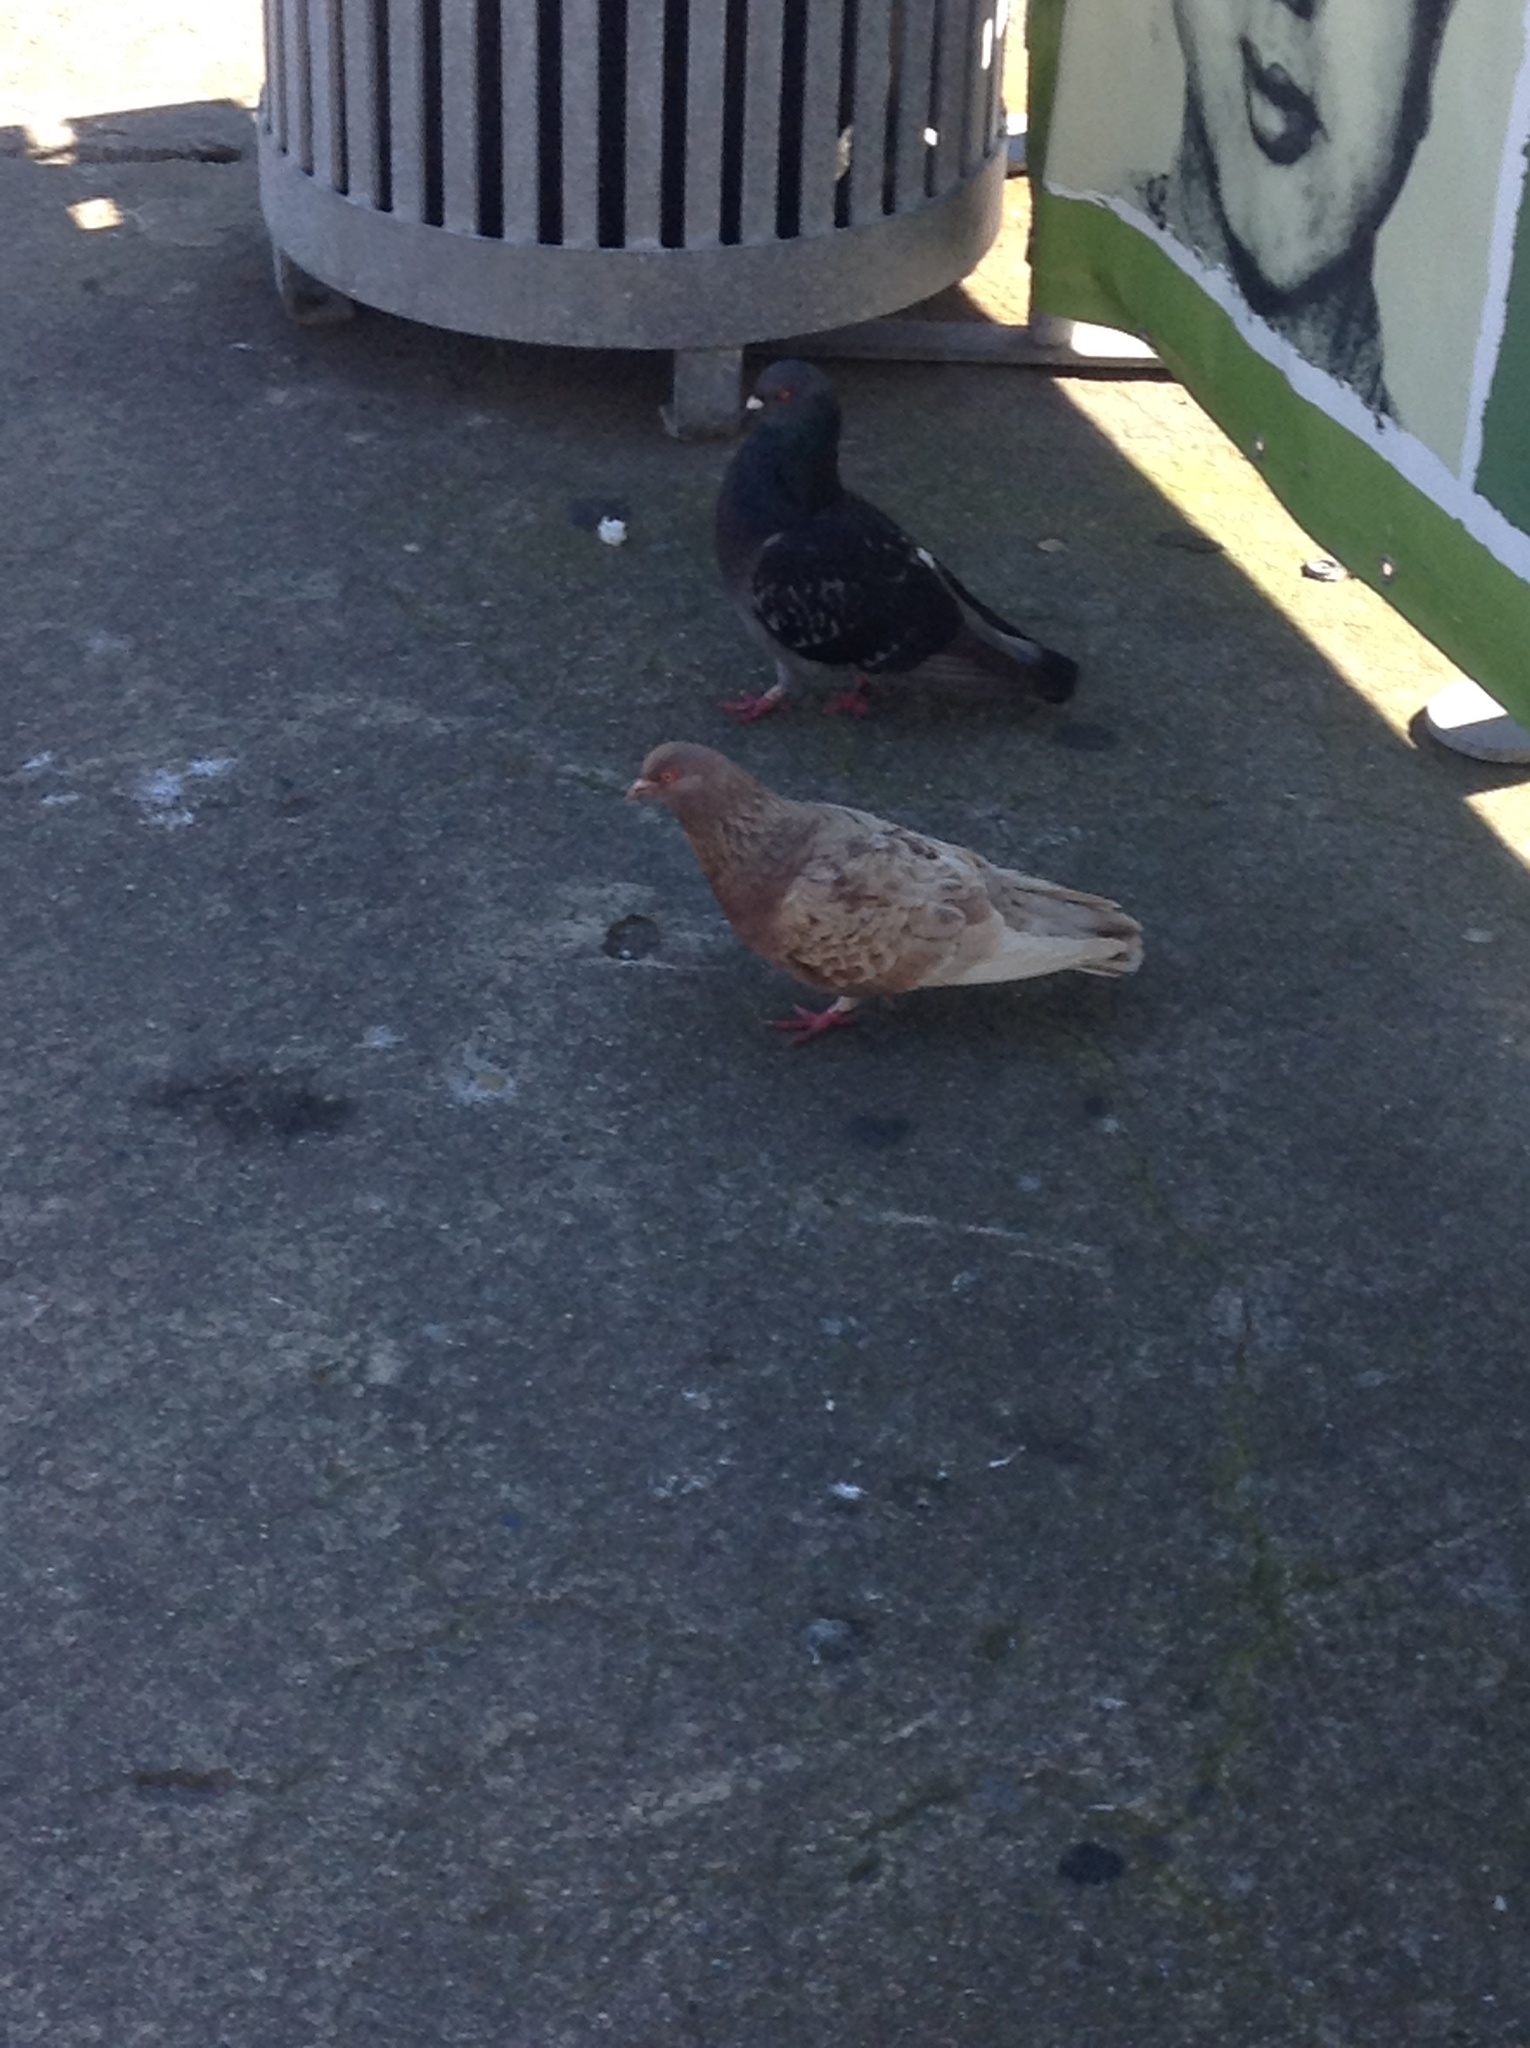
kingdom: Animalia
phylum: Chordata
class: Aves
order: Columbiformes
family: Columbidae
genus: Columba
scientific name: Columba livia
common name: Rock pigeon
